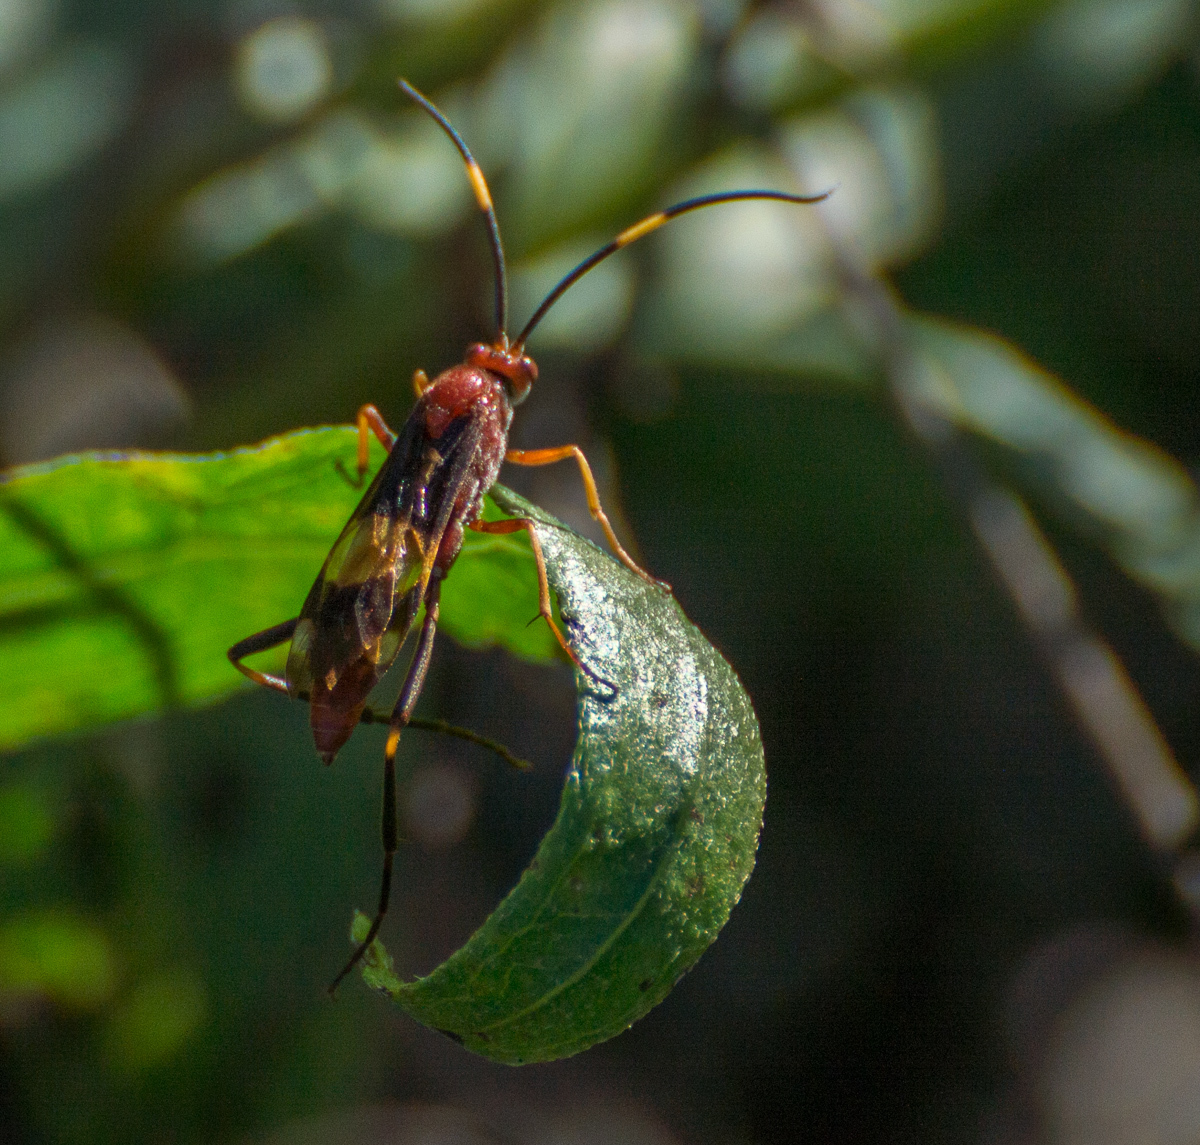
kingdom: Animalia
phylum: Arthropoda
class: Insecta
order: Hymenoptera
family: Ichneumonidae
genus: Compsocryptus
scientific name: Compsocryptus melanostigma
